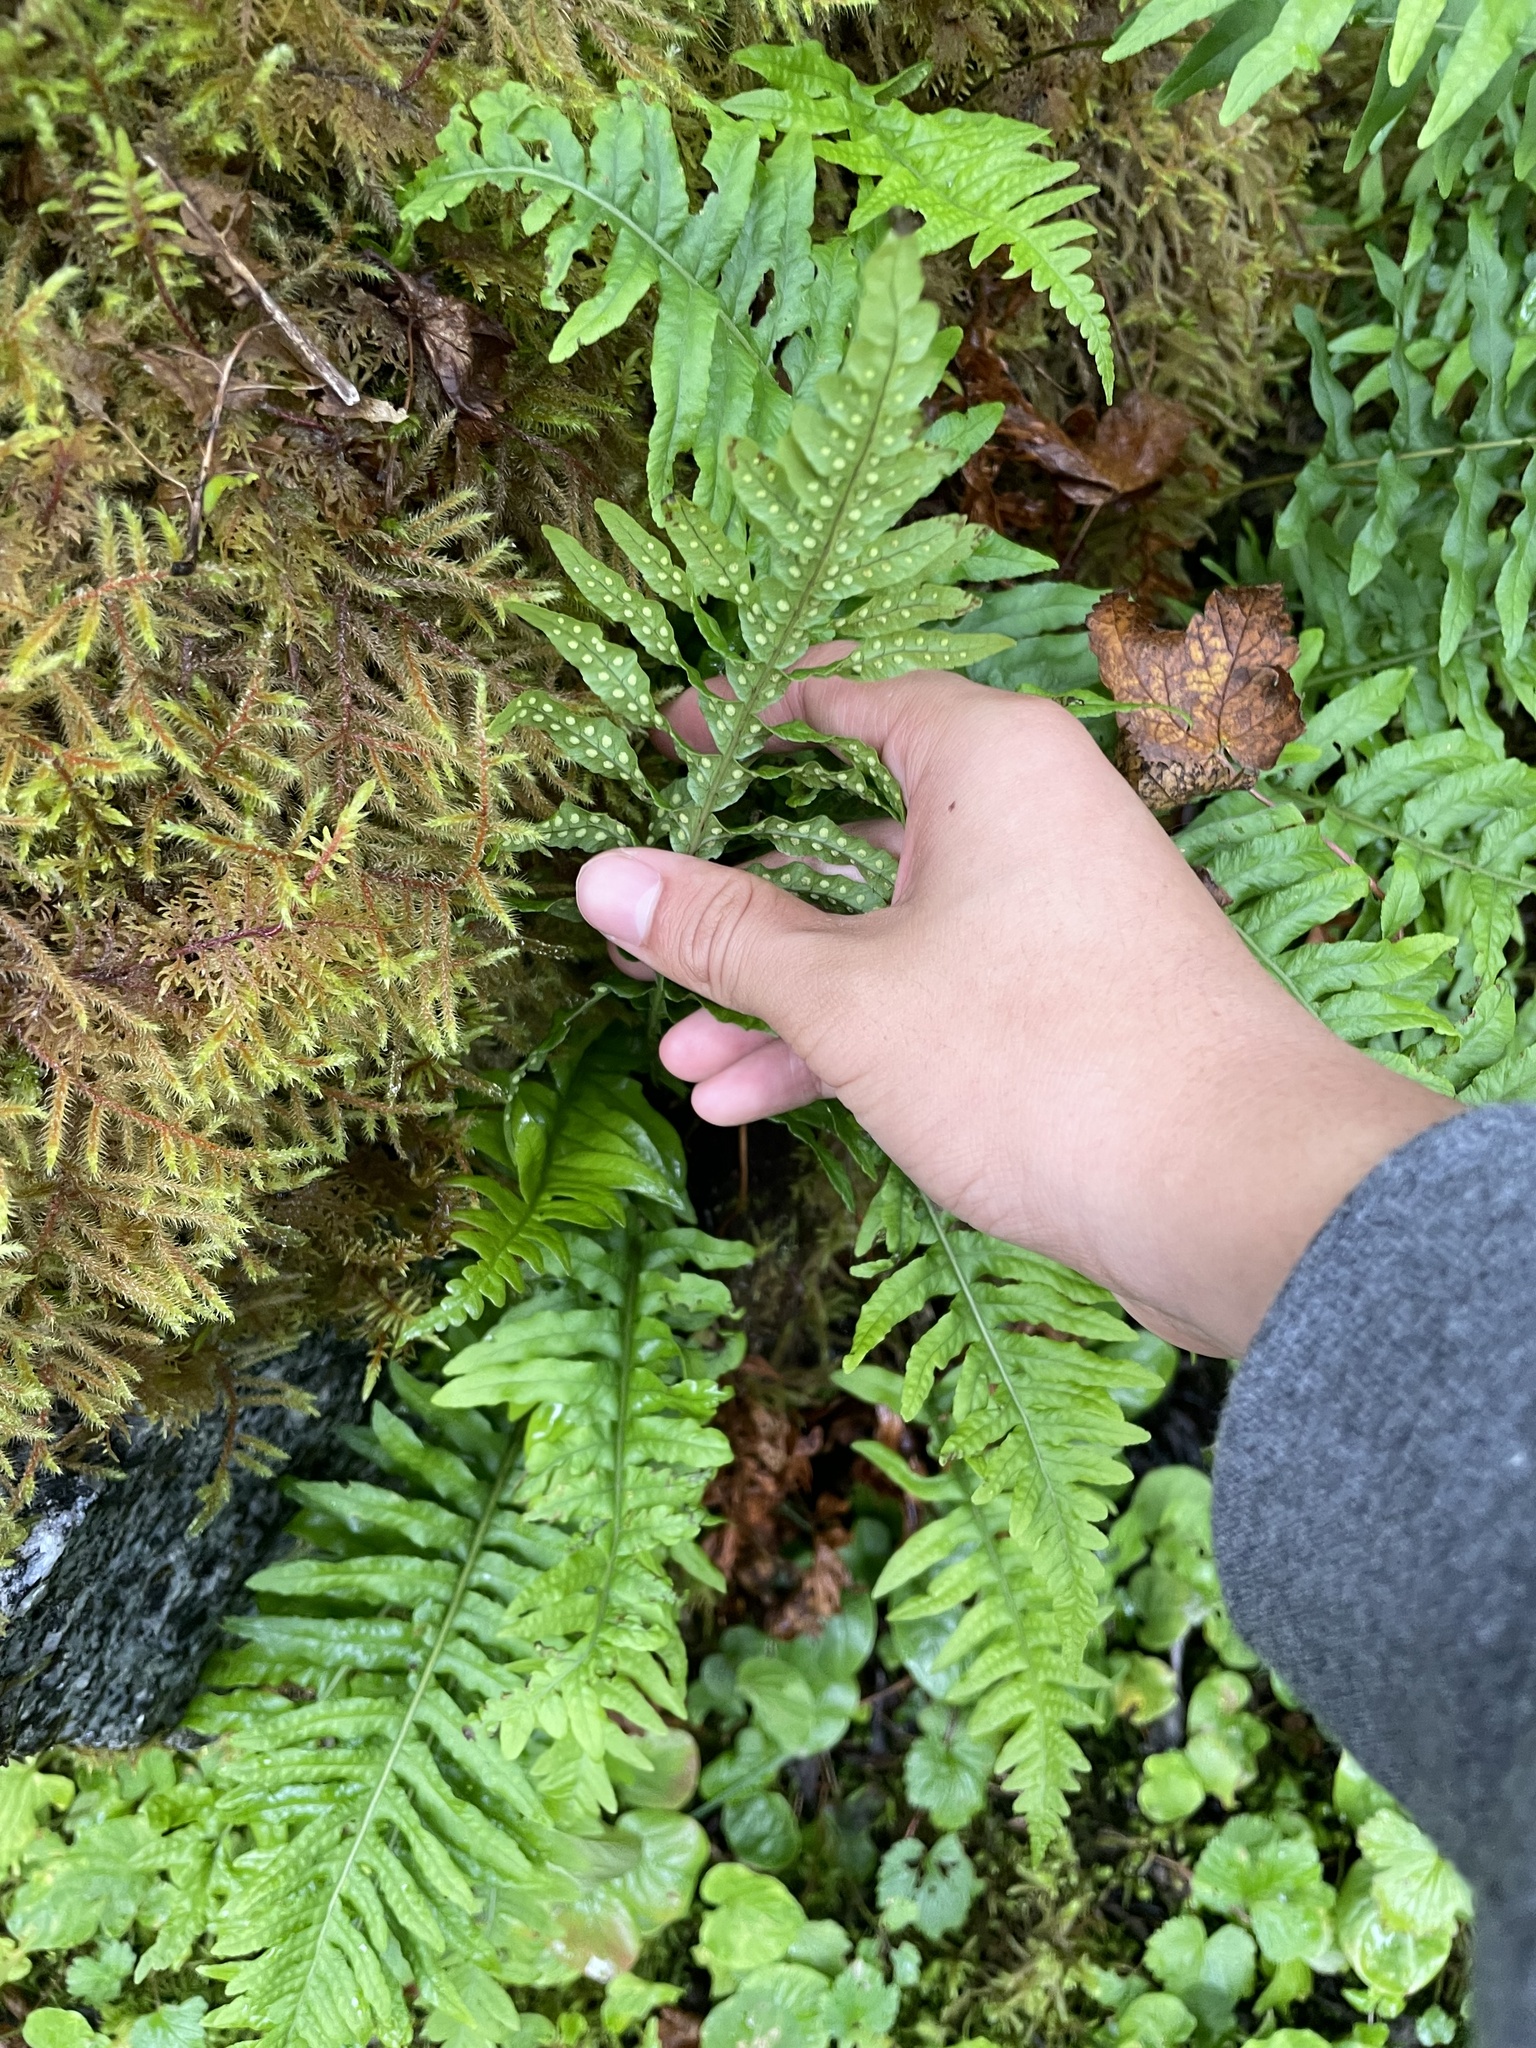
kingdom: Plantae
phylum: Tracheophyta
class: Polypodiopsida
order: Polypodiales
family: Polypodiaceae
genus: Polypodium
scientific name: Polypodium glycyrrhiza
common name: Licorice fern
